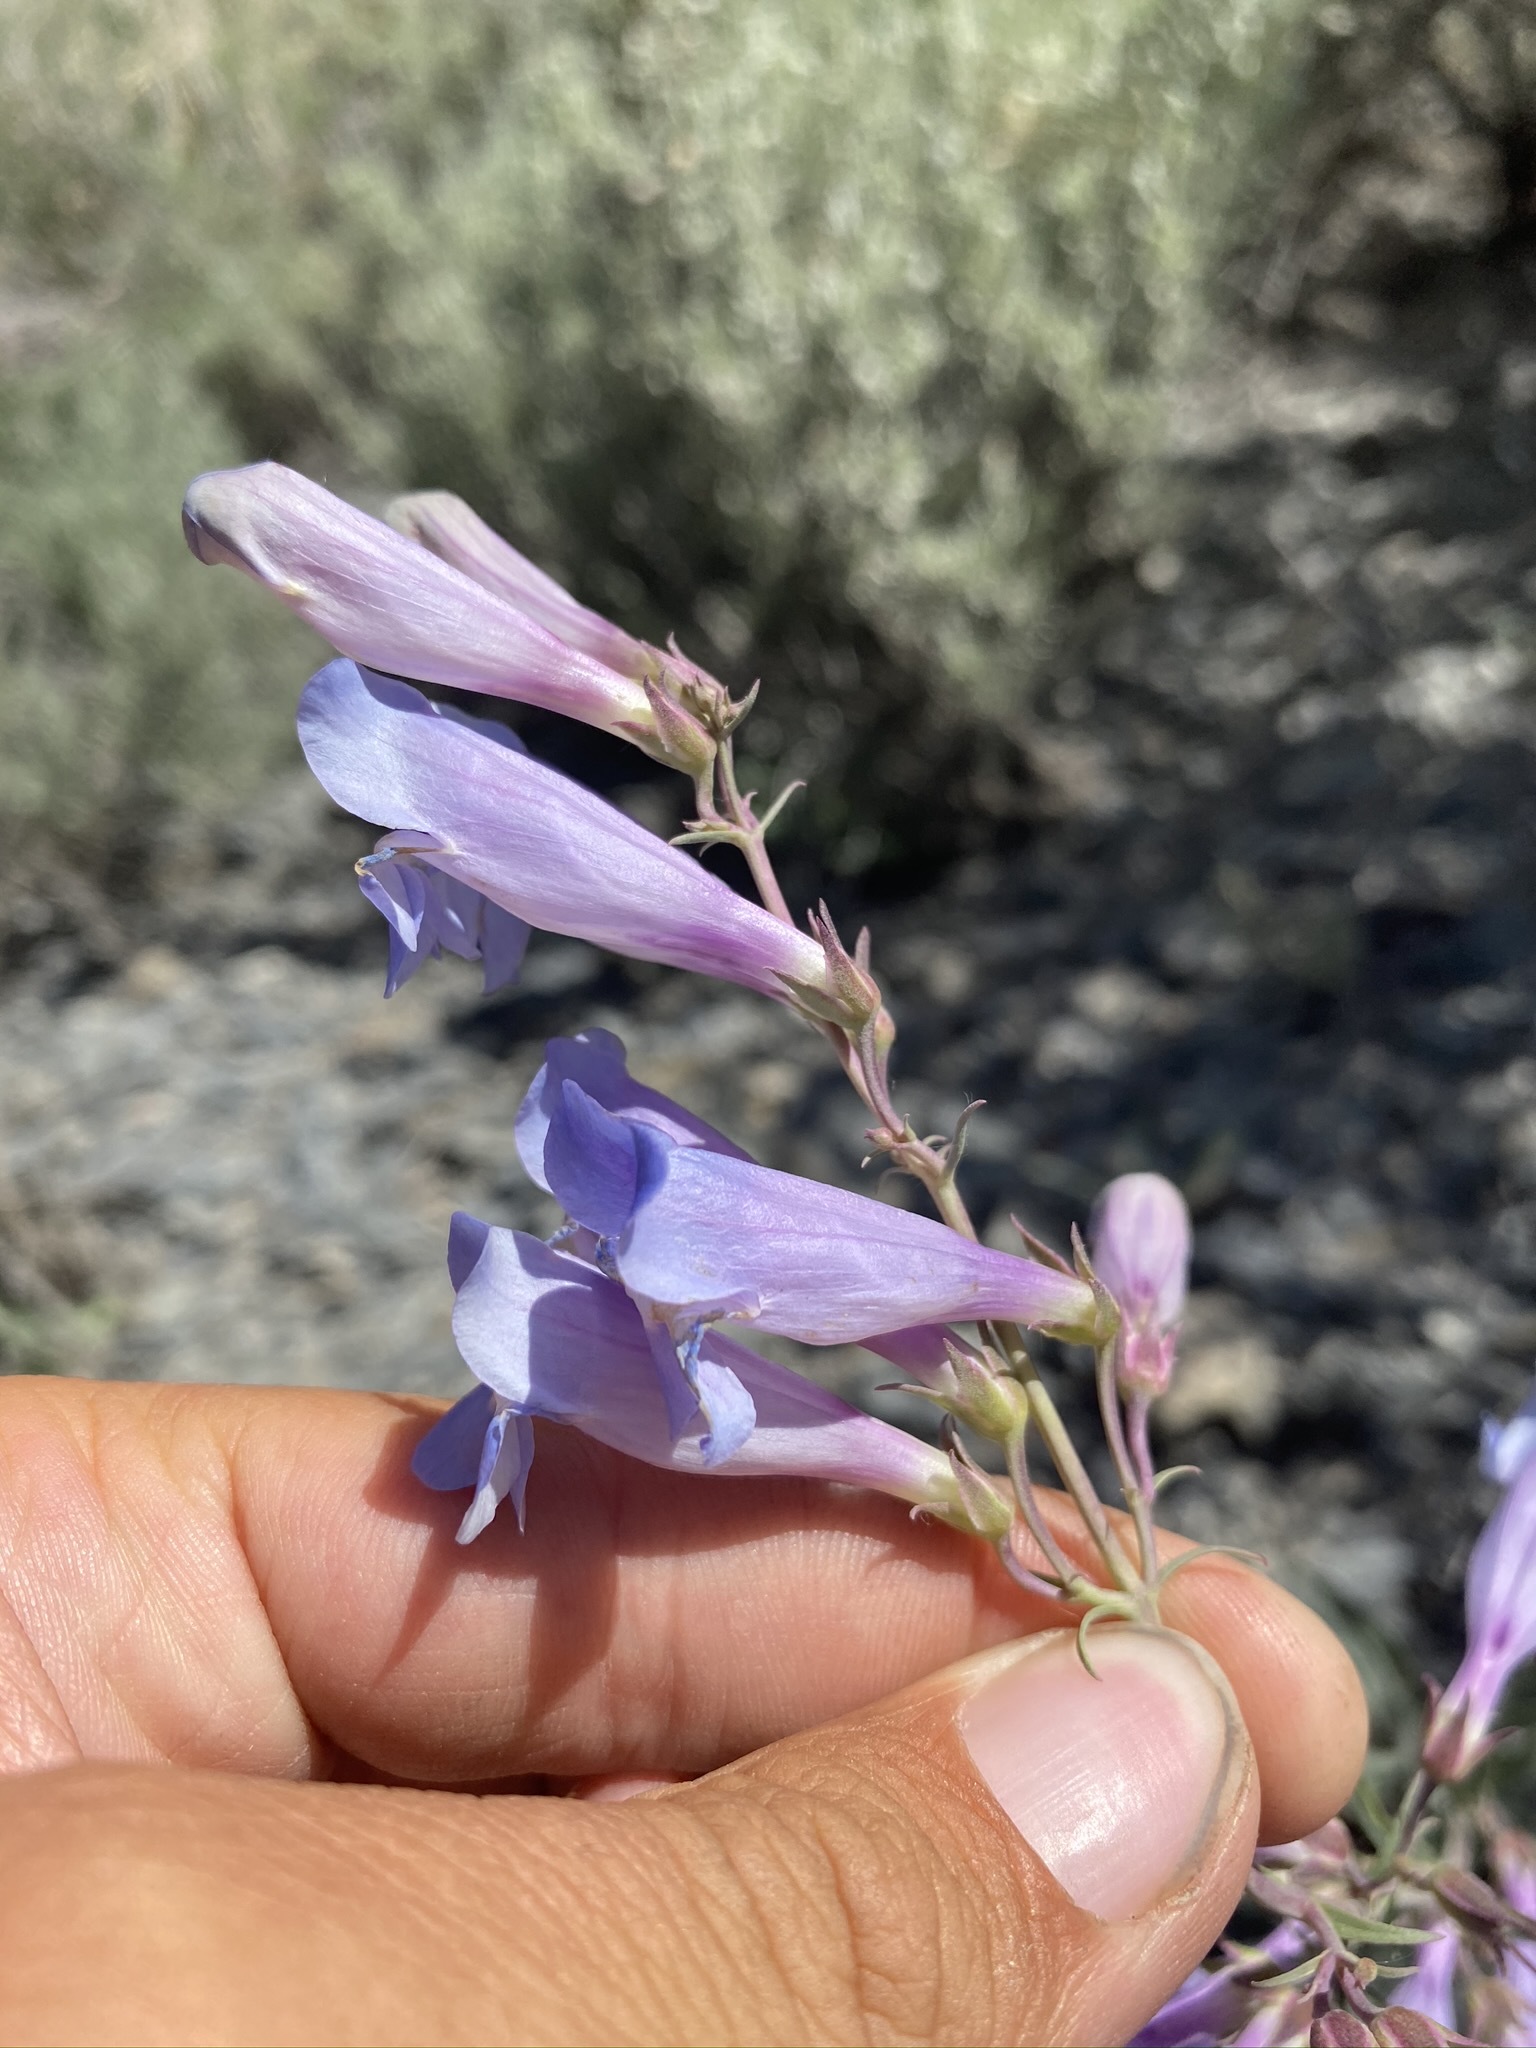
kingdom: Plantae
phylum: Tracheophyta
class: Magnoliopsida
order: Lamiales
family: Plantaginaceae
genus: Penstemon
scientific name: Penstemon speciosus
